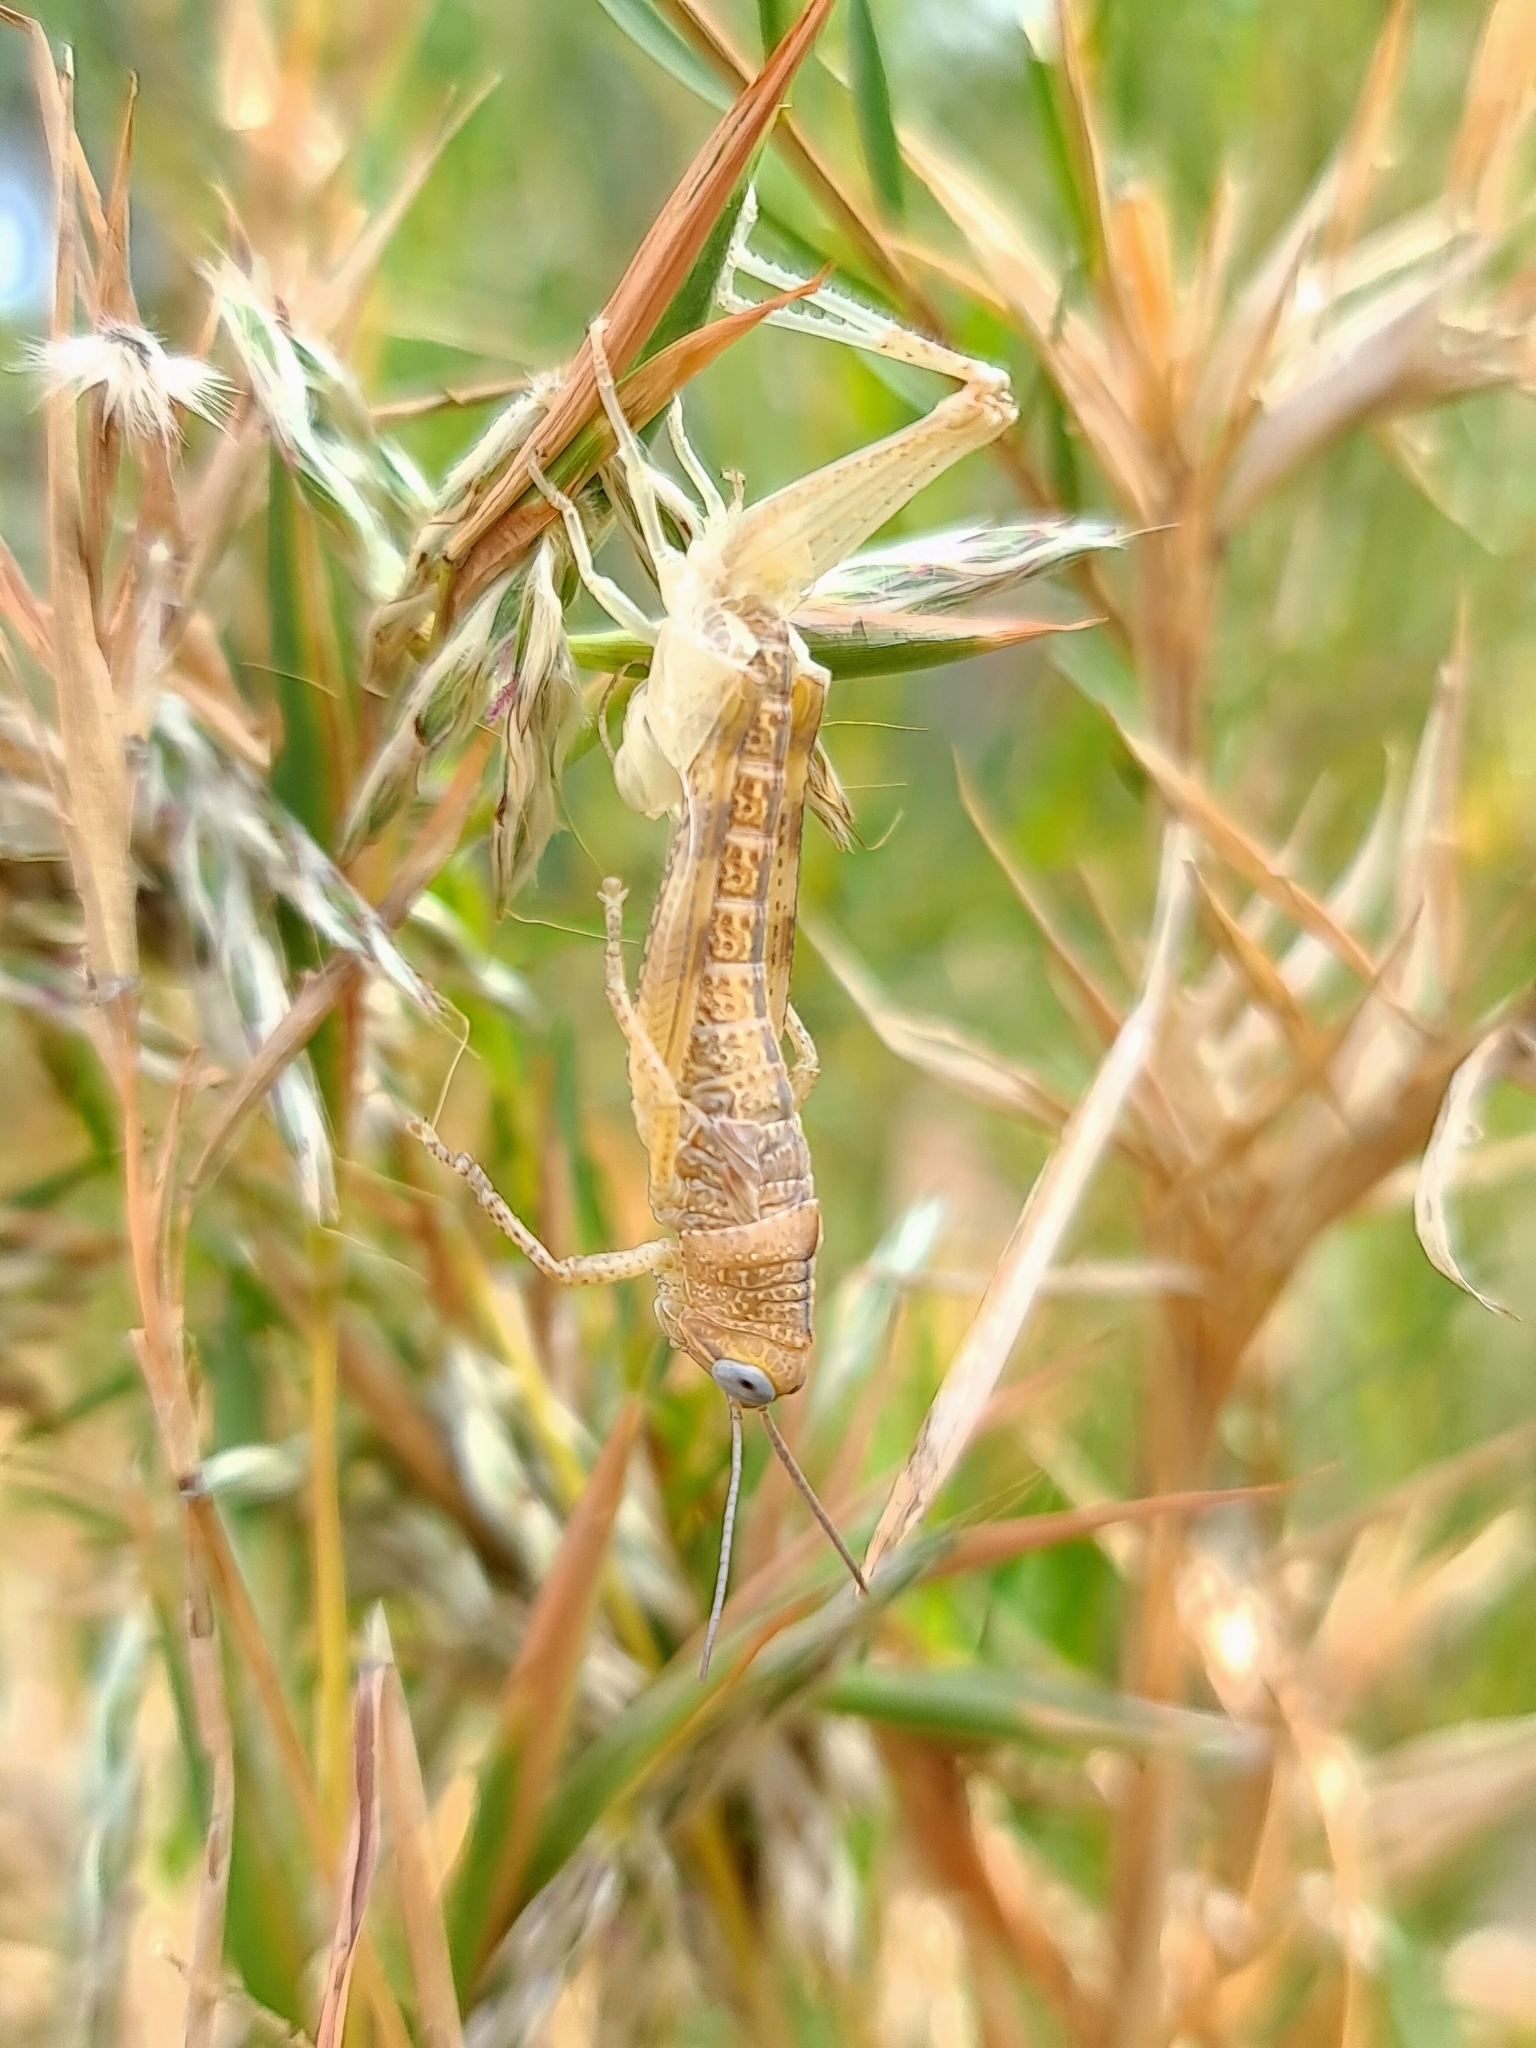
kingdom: Animalia
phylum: Arthropoda
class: Insecta
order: Orthoptera
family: Acrididae
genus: Valanga
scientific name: Valanga irregularis
